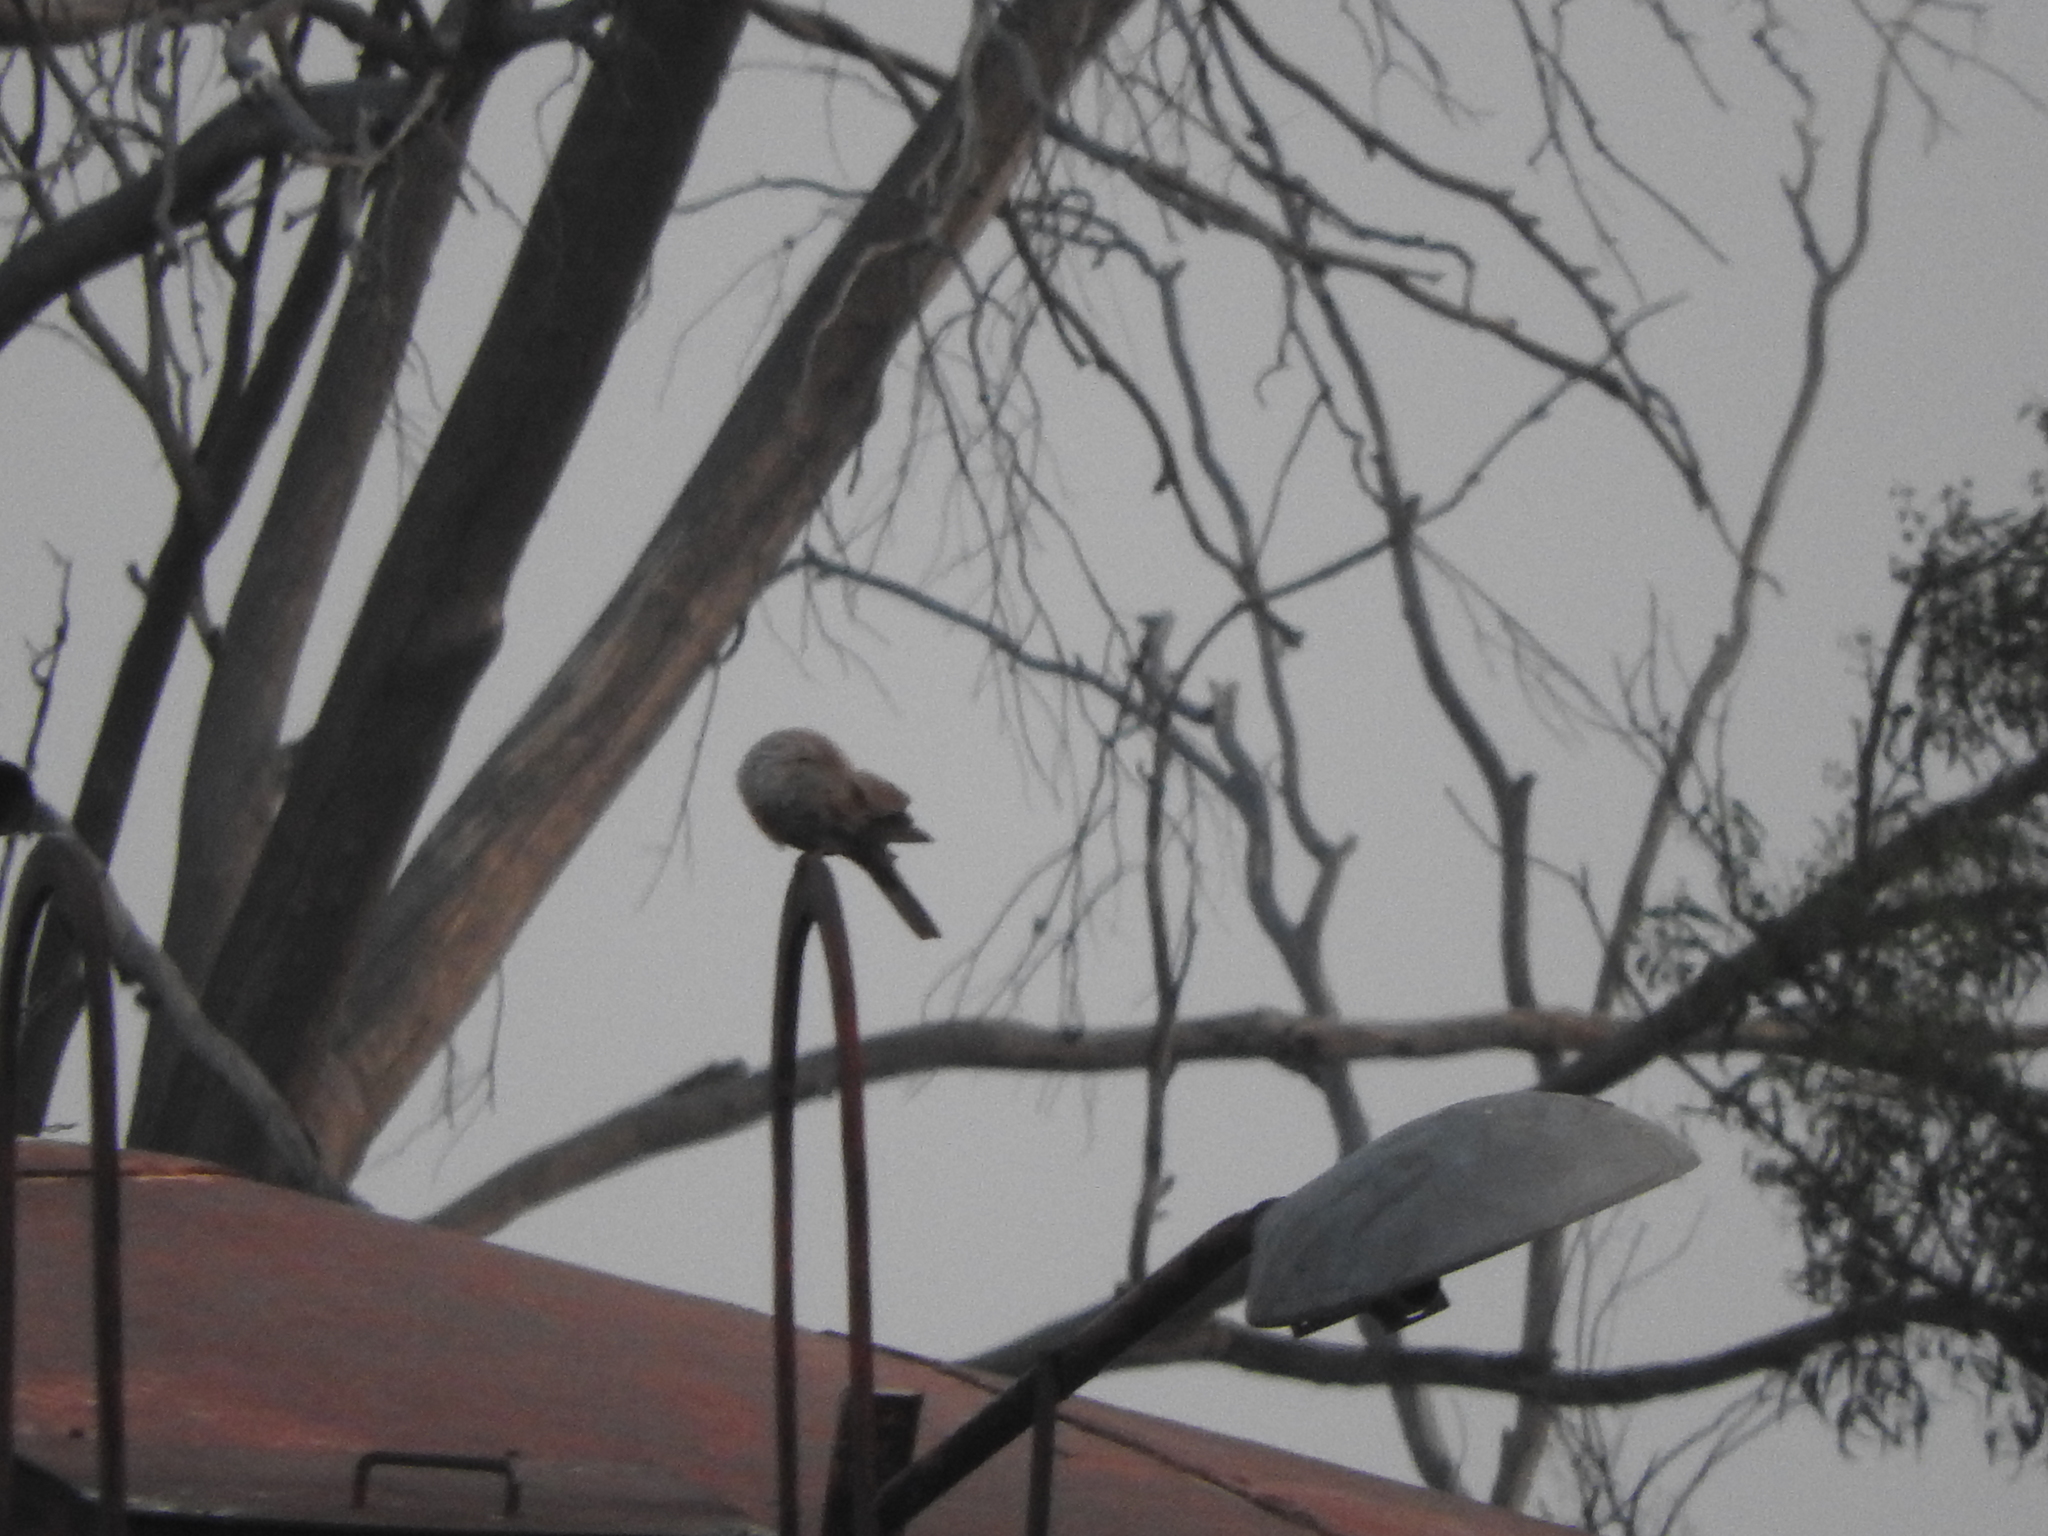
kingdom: Animalia
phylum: Chordata
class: Aves
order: Columbiformes
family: Columbidae
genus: Streptopelia
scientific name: Streptopelia decaocto
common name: Eurasian collared dove
